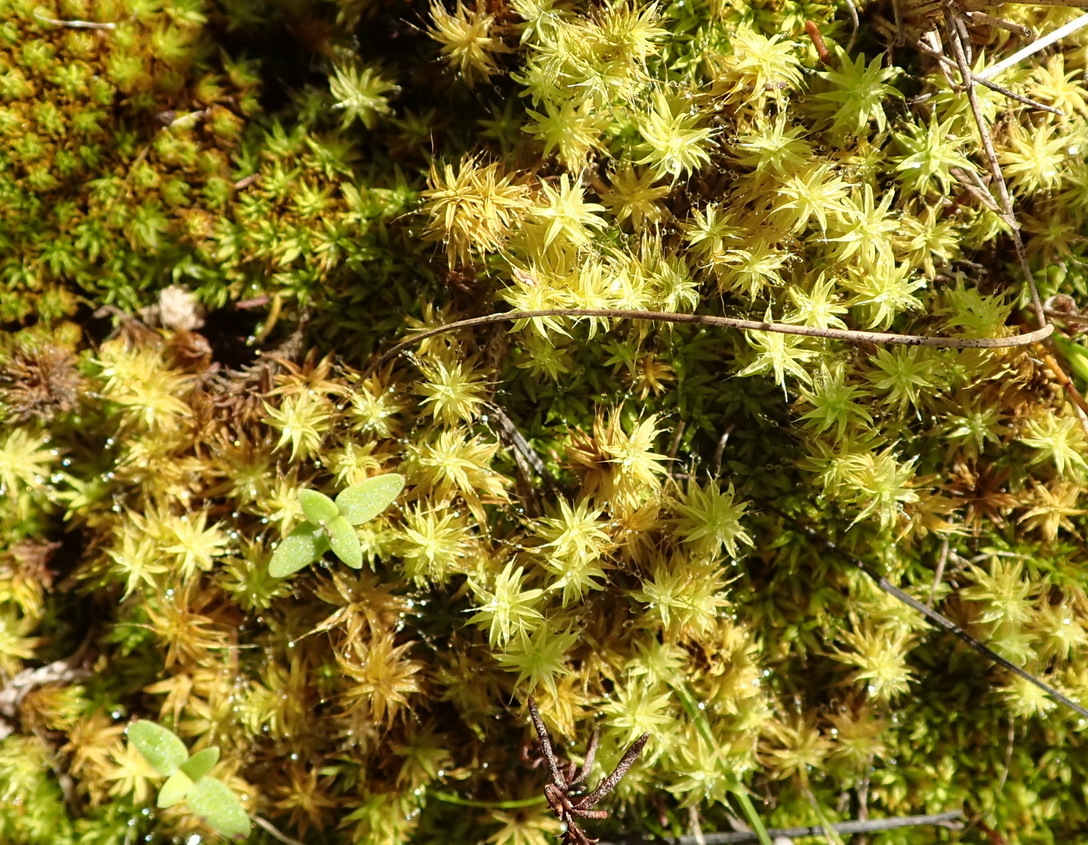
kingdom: Plantae
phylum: Bryophyta
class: Bryopsida
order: Pottiales
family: Pottiaceae
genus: Pseudocrossidium
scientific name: Pseudocrossidium crinitum
